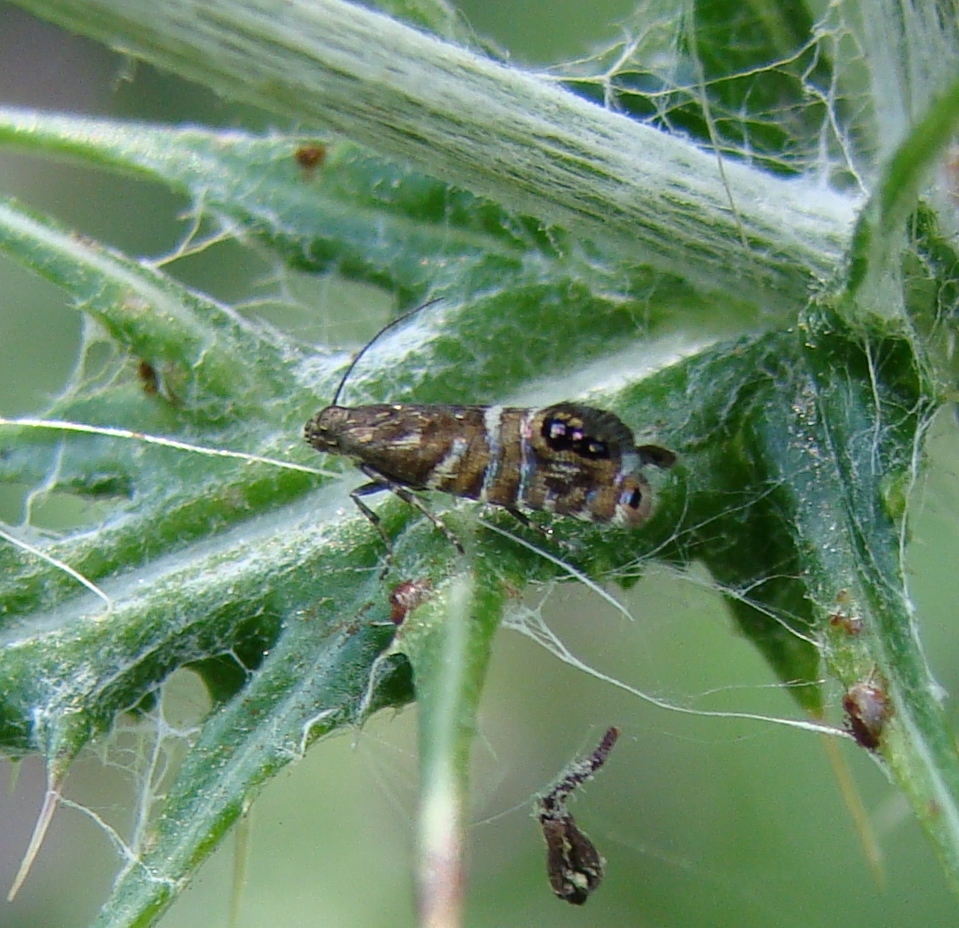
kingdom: Animalia
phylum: Arthropoda
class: Insecta
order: Lepidoptera
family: Glyphipterigidae
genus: Glyphipterix
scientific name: Glyphipterix acronoma
